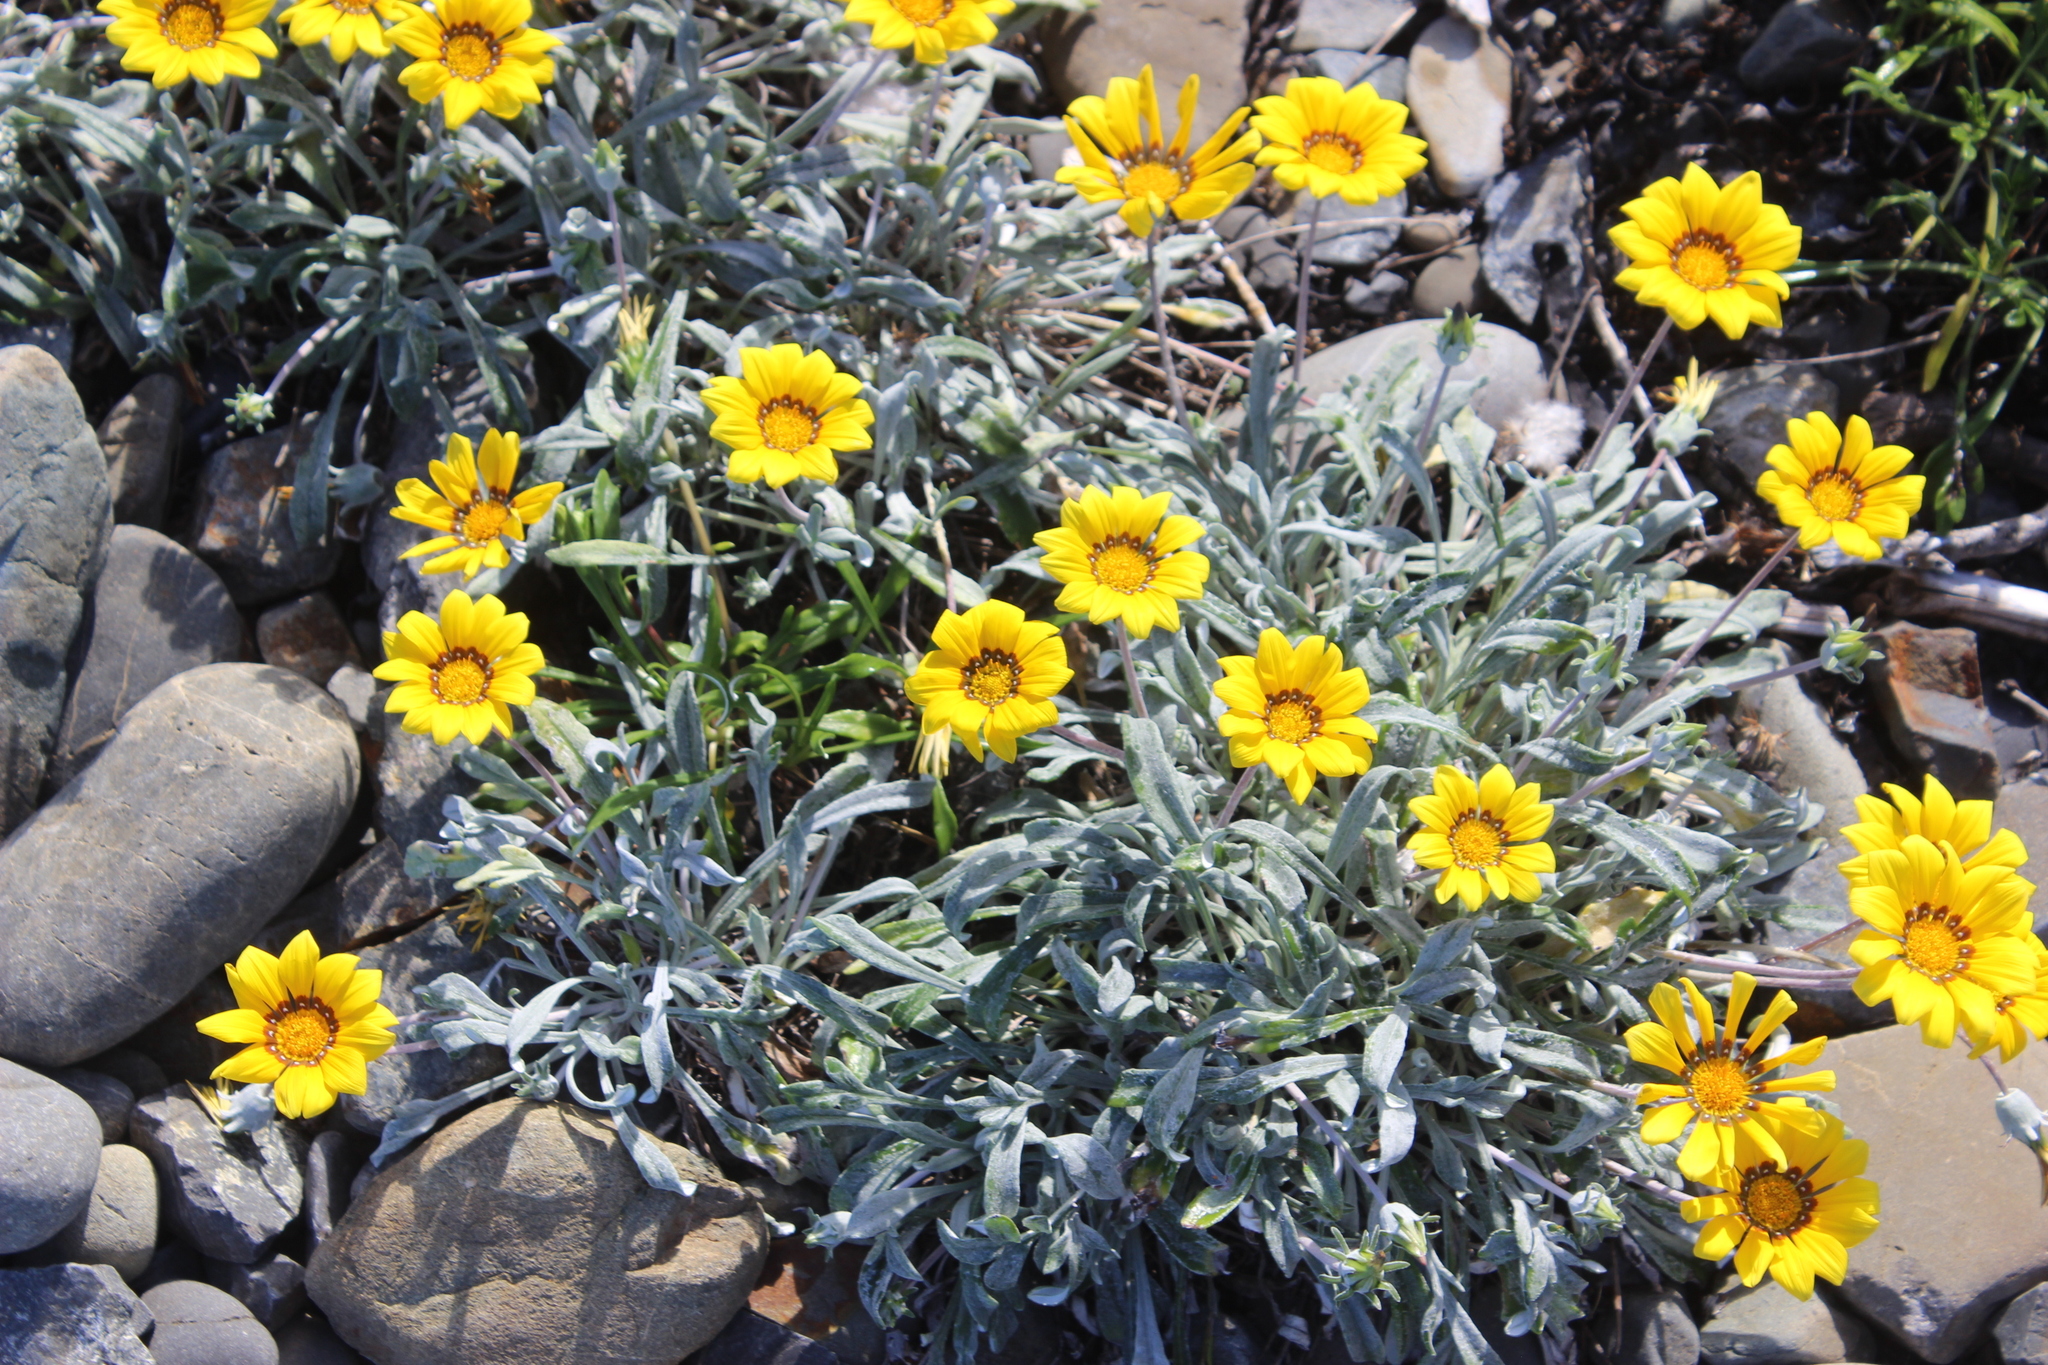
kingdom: Plantae
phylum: Tracheophyta
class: Magnoliopsida
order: Asterales
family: Asteraceae
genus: Gazania
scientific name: Gazania splendens
